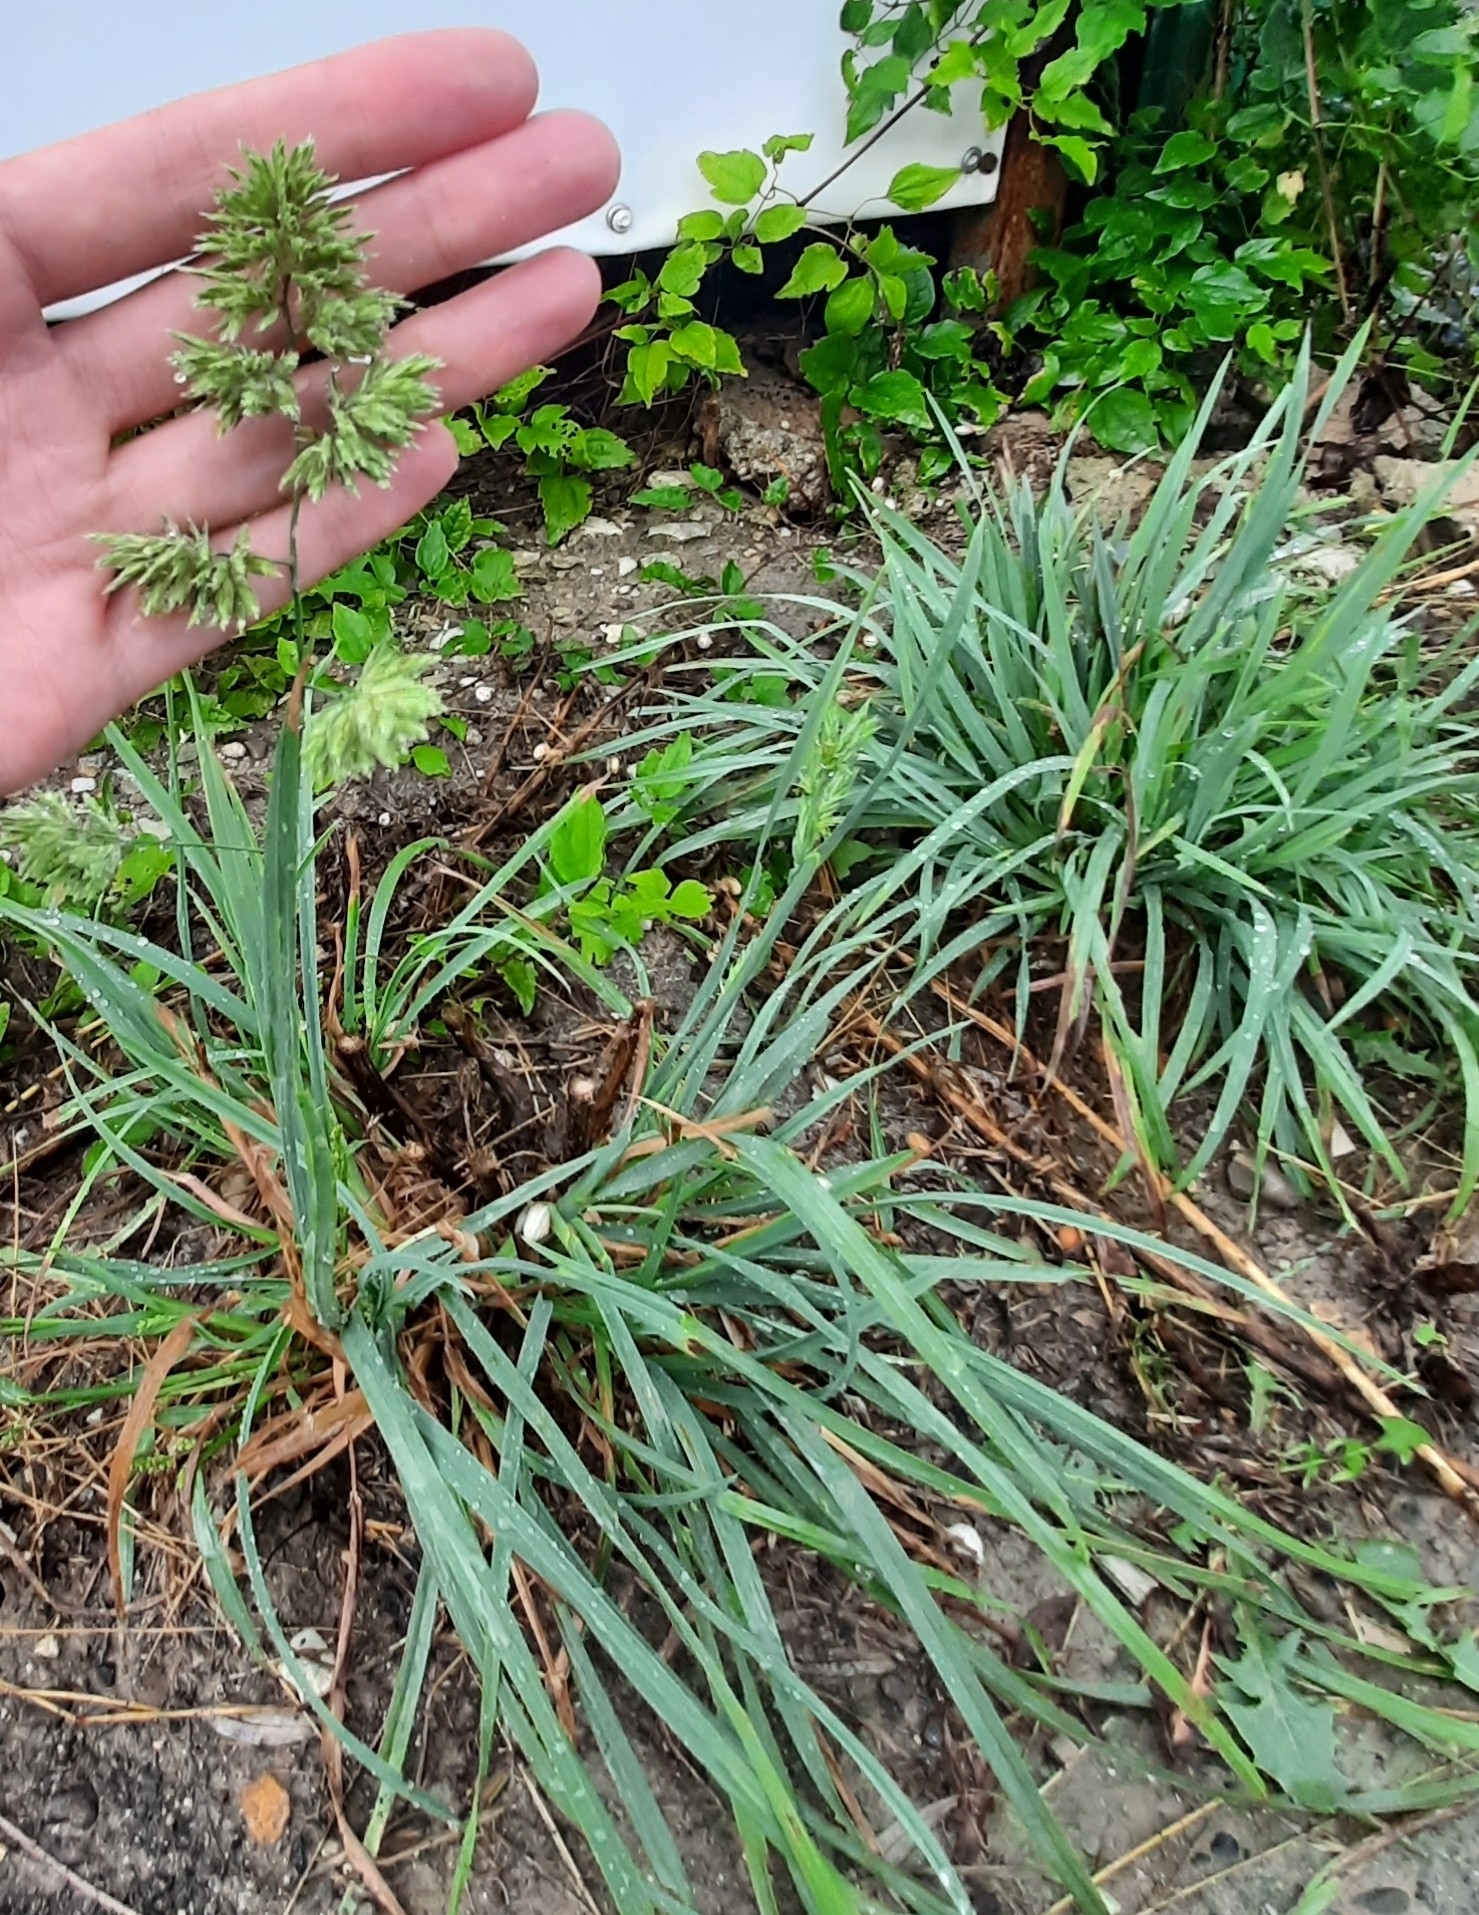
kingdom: Plantae
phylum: Tracheophyta
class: Liliopsida
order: Poales
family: Poaceae
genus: Dactylis
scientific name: Dactylis glomerata
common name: Orchardgrass
